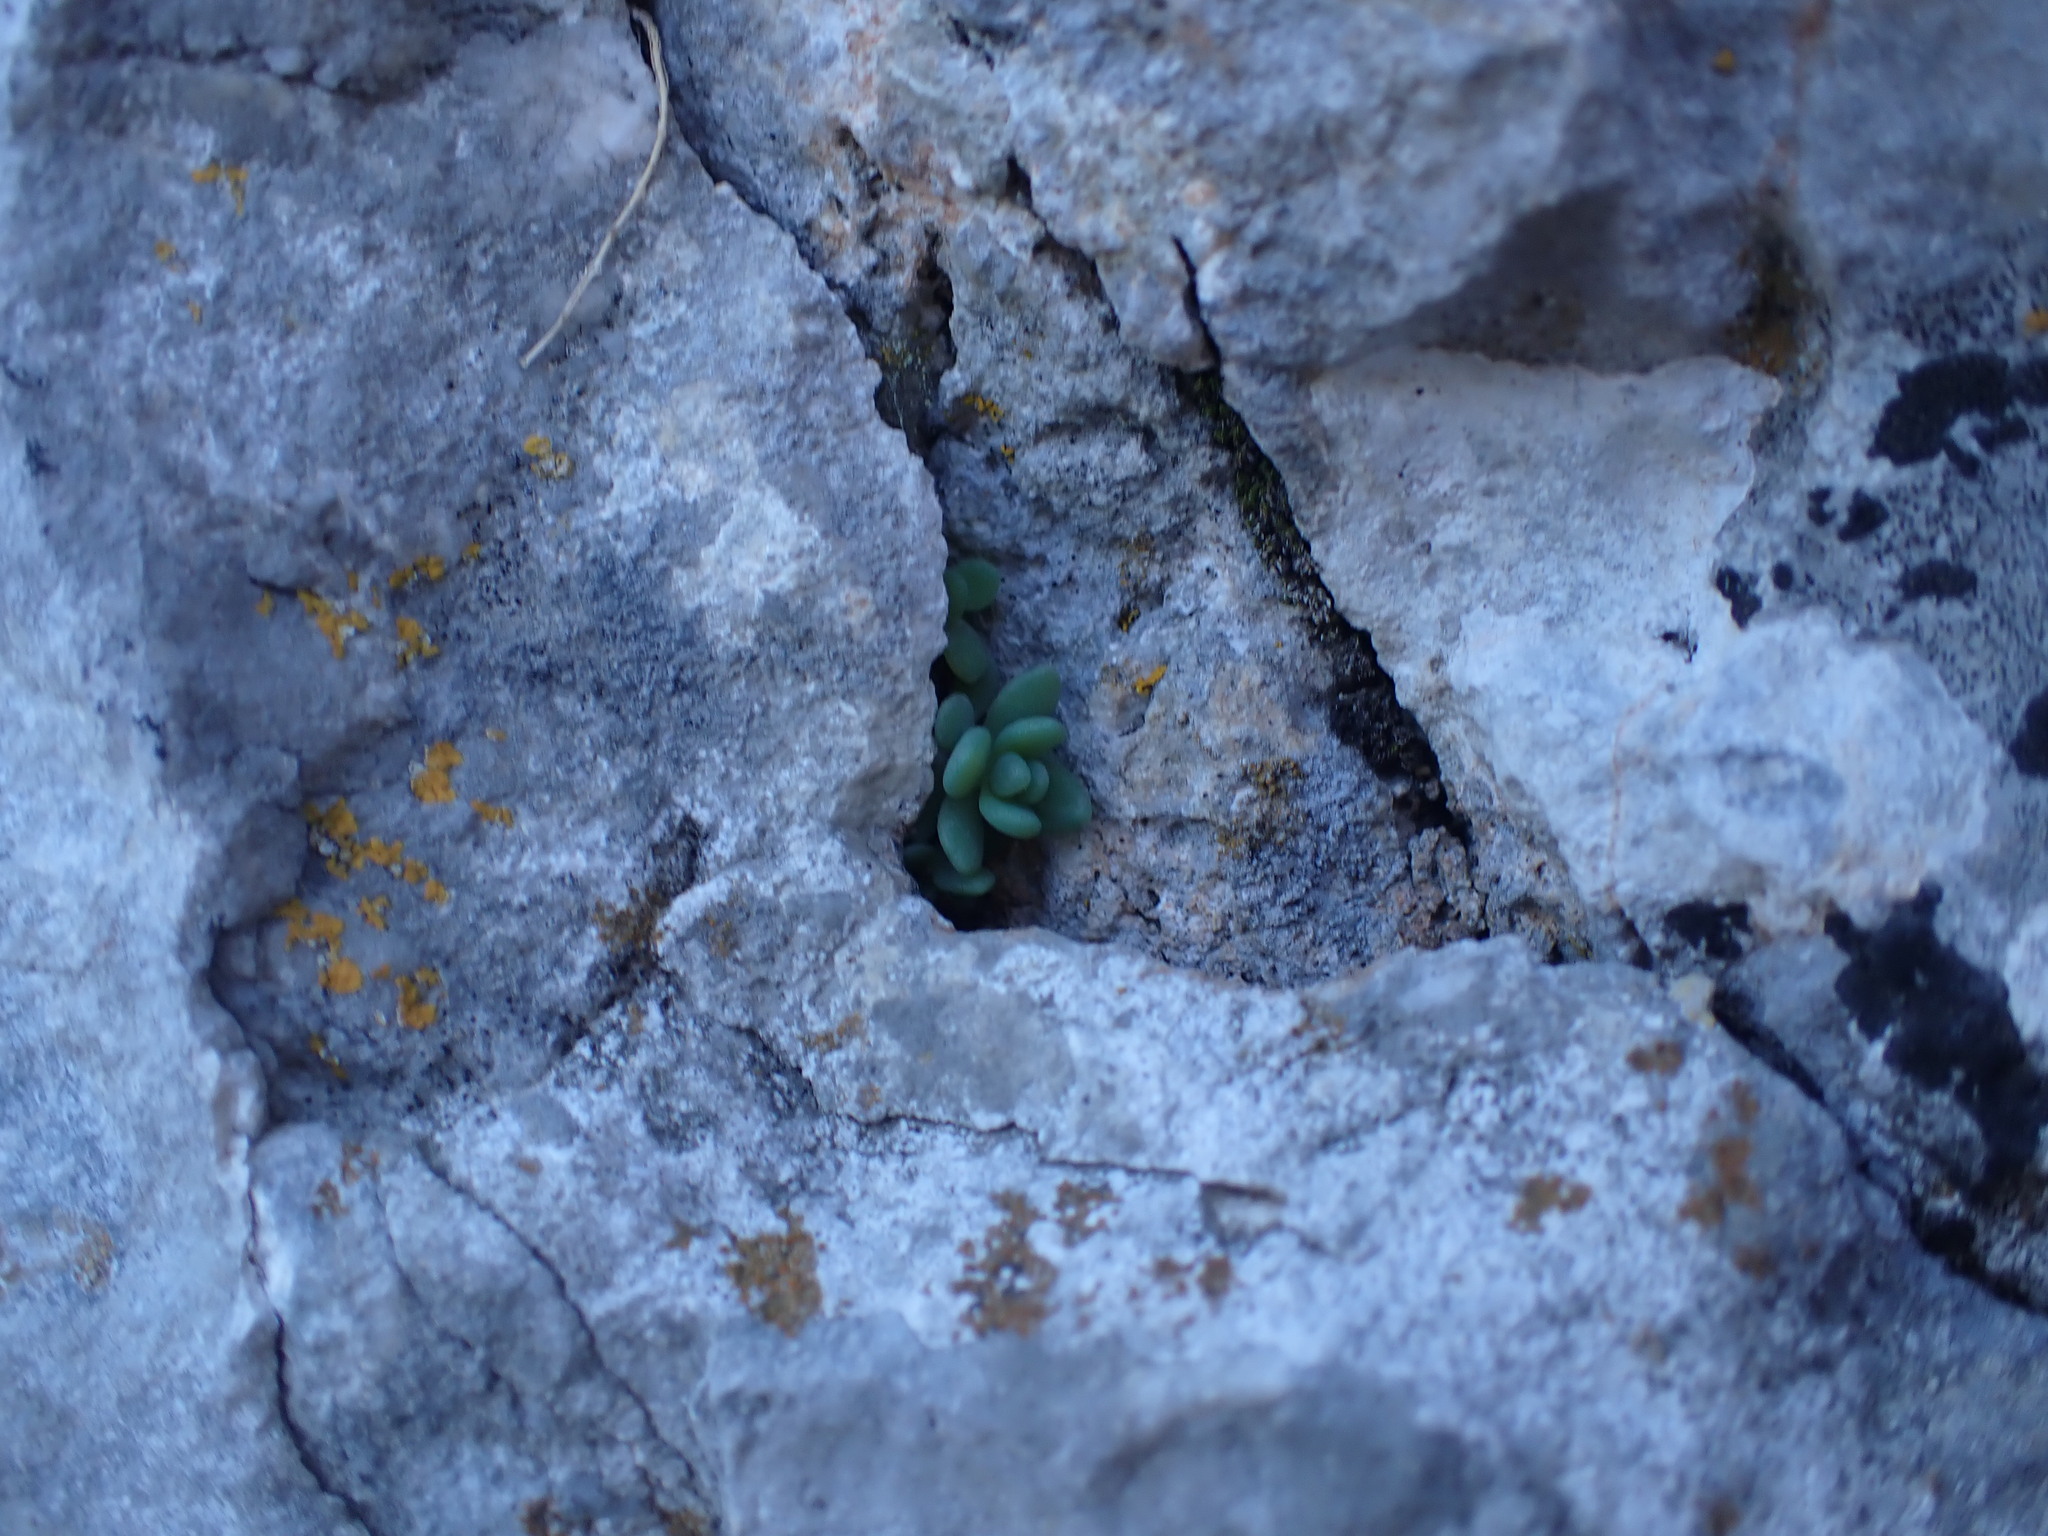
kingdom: Plantae
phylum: Tracheophyta
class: Magnoliopsida
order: Saxifragales
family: Crassulaceae
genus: Sedum
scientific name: Sedum dasyphyllum
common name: Thick-leaf stonecrop
